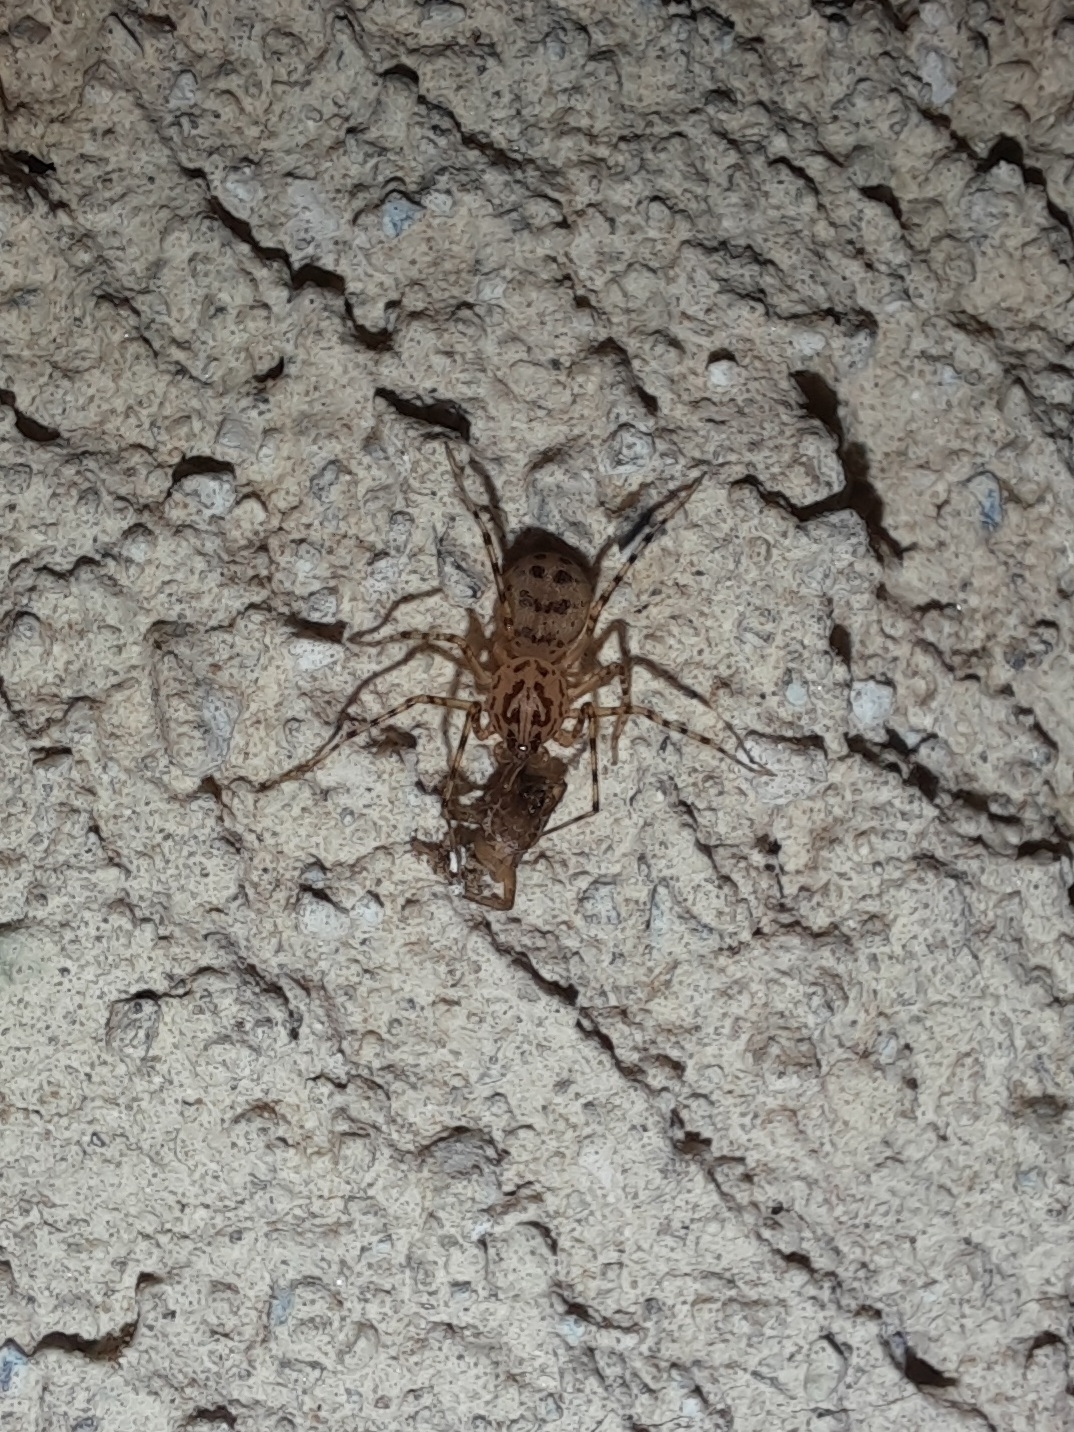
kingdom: Animalia
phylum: Arthropoda
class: Arachnida
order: Araneae
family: Scytodidae
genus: Scytodes
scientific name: Scytodes thoracica
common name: Spitting spider
